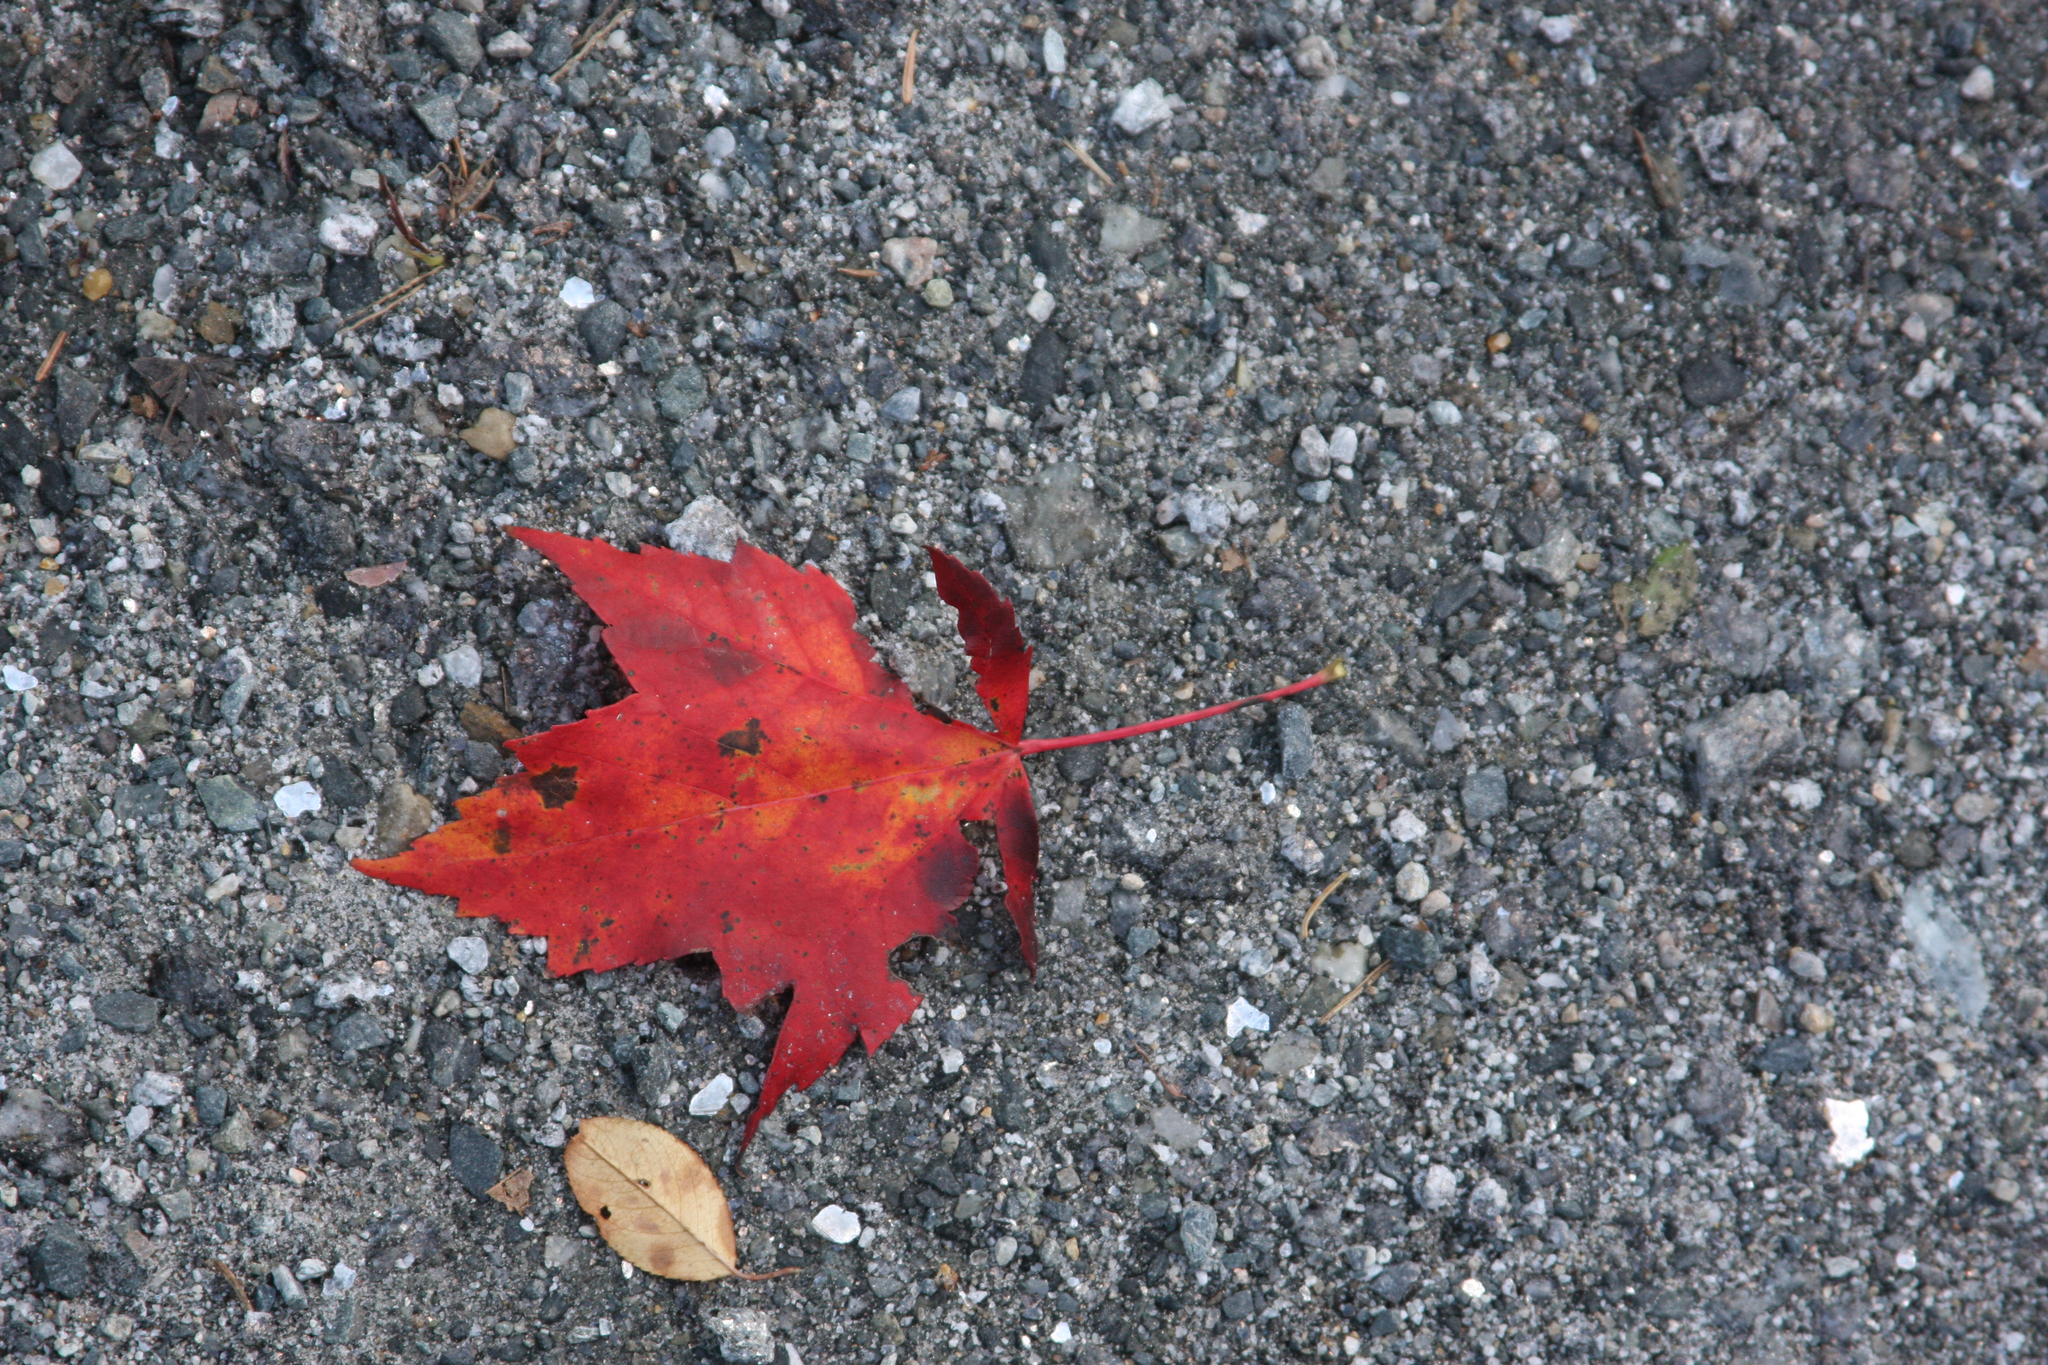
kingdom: Plantae
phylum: Tracheophyta
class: Magnoliopsida
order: Sapindales
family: Sapindaceae
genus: Acer
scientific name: Acer rubrum
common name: Red maple
